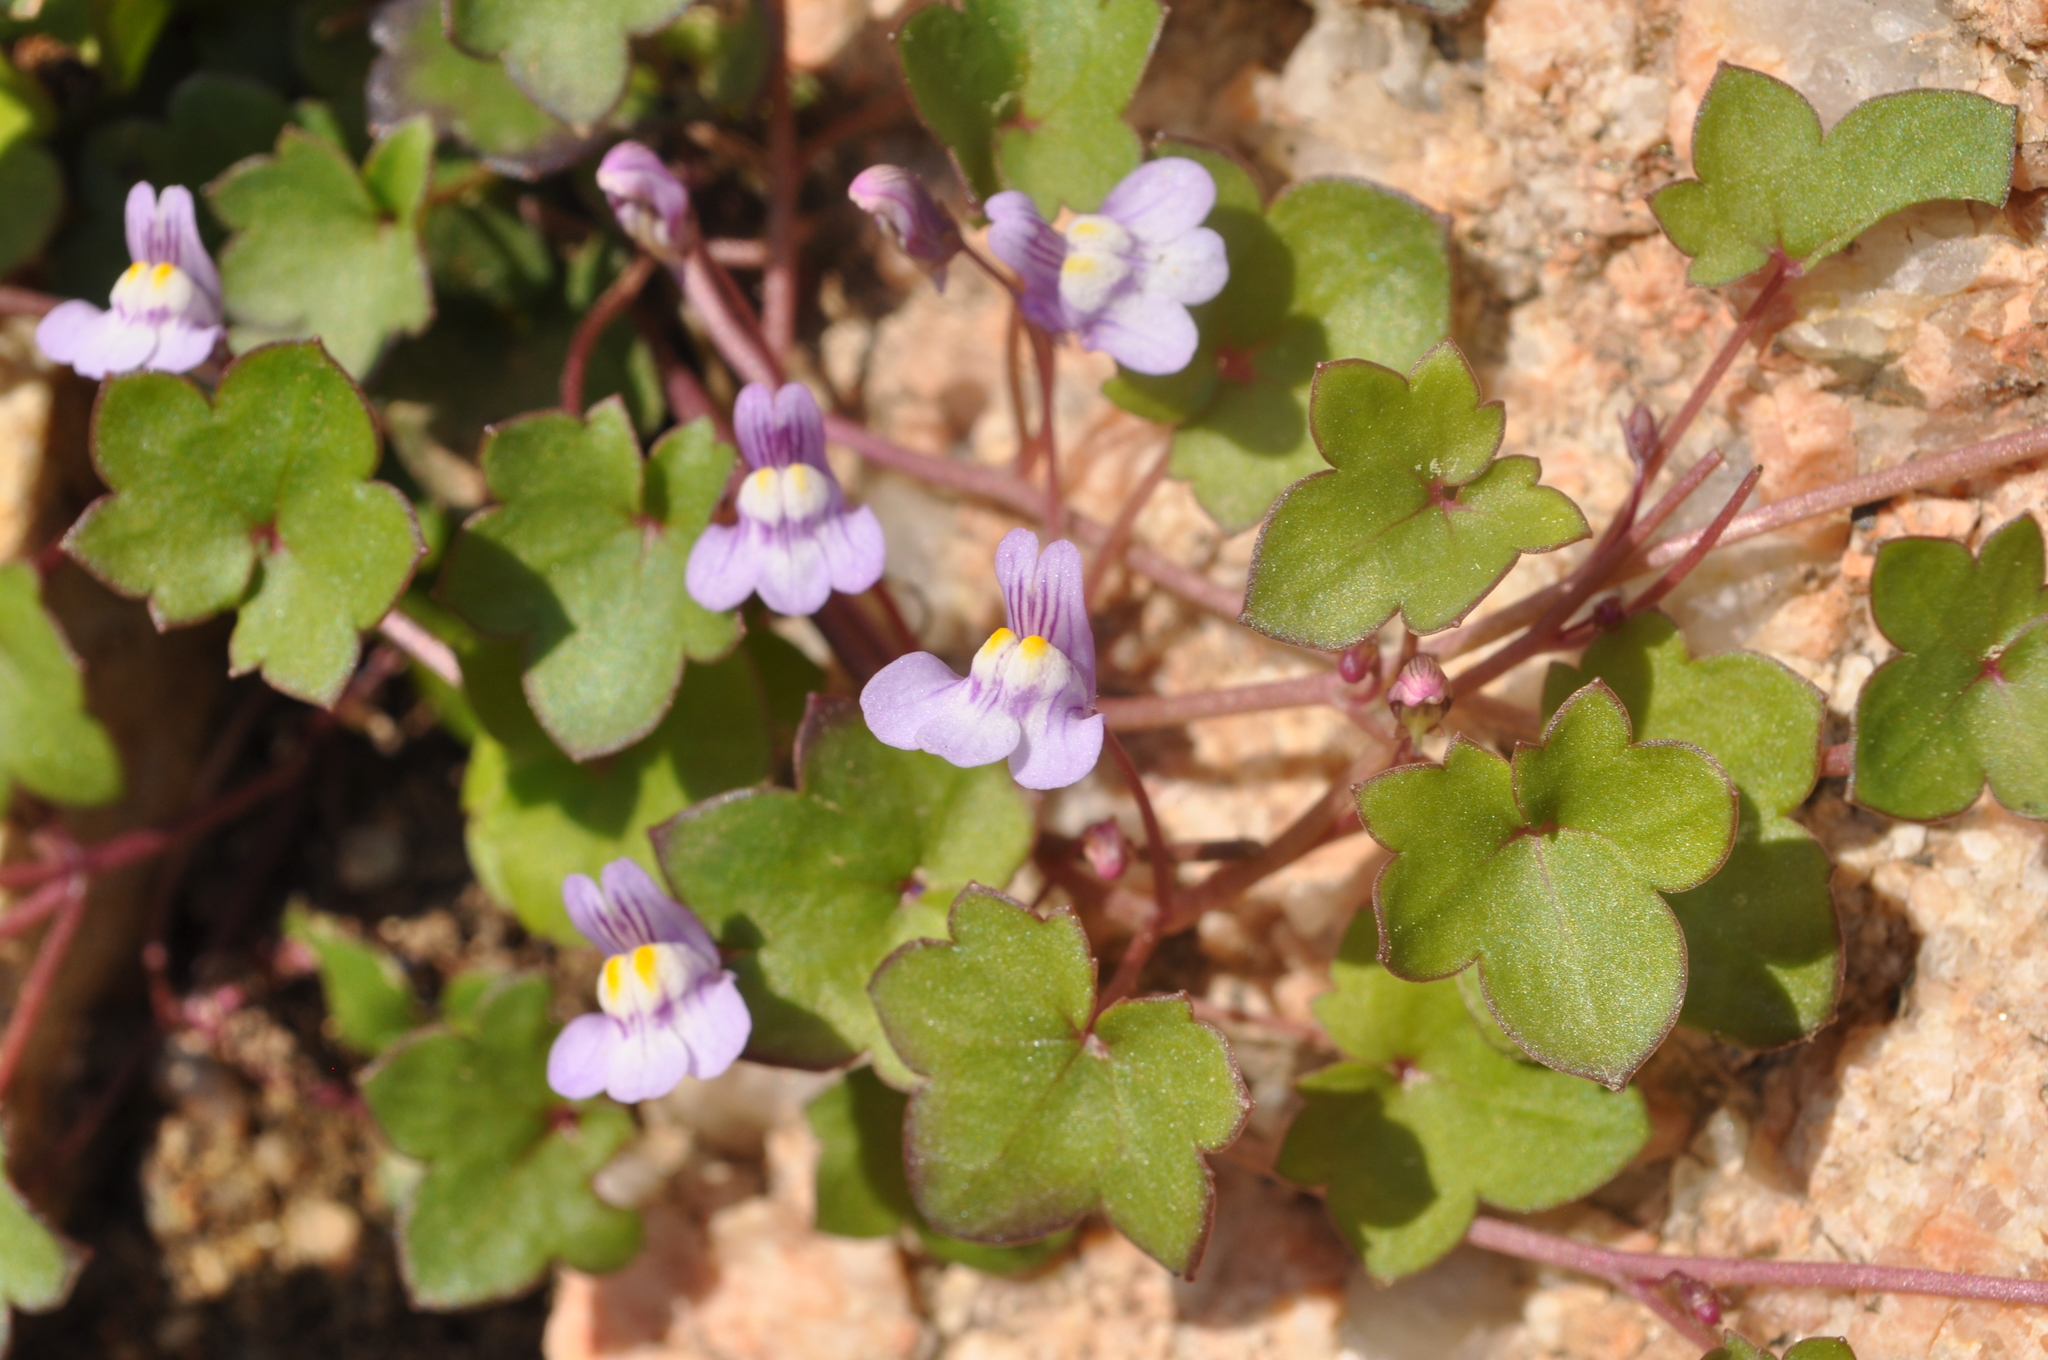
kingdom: Plantae
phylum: Tracheophyta
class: Magnoliopsida
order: Lamiales
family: Plantaginaceae
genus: Cymbalaria
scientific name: Cymbalaria muralis
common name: Ivy-leaved toadflax
